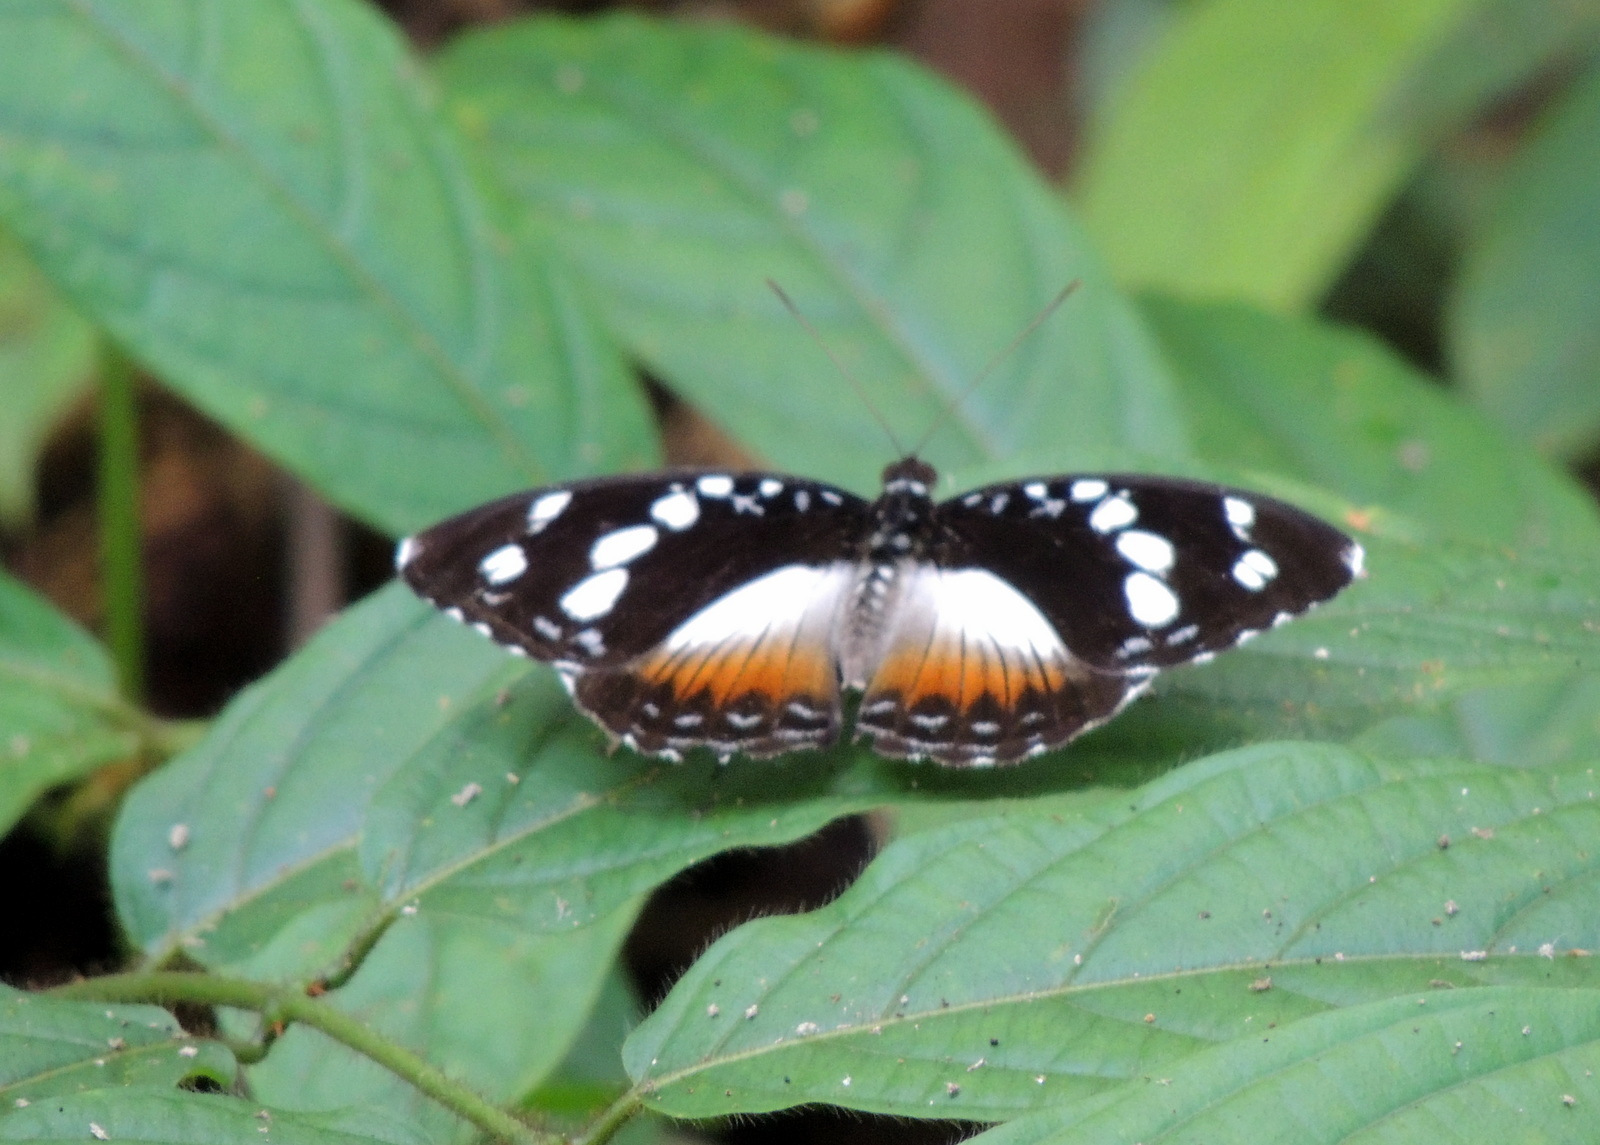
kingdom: Animalia
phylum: Arthropoda
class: Insecta
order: Lepidoptera
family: Nymphalidae
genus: Aterica
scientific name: Aterica galene
